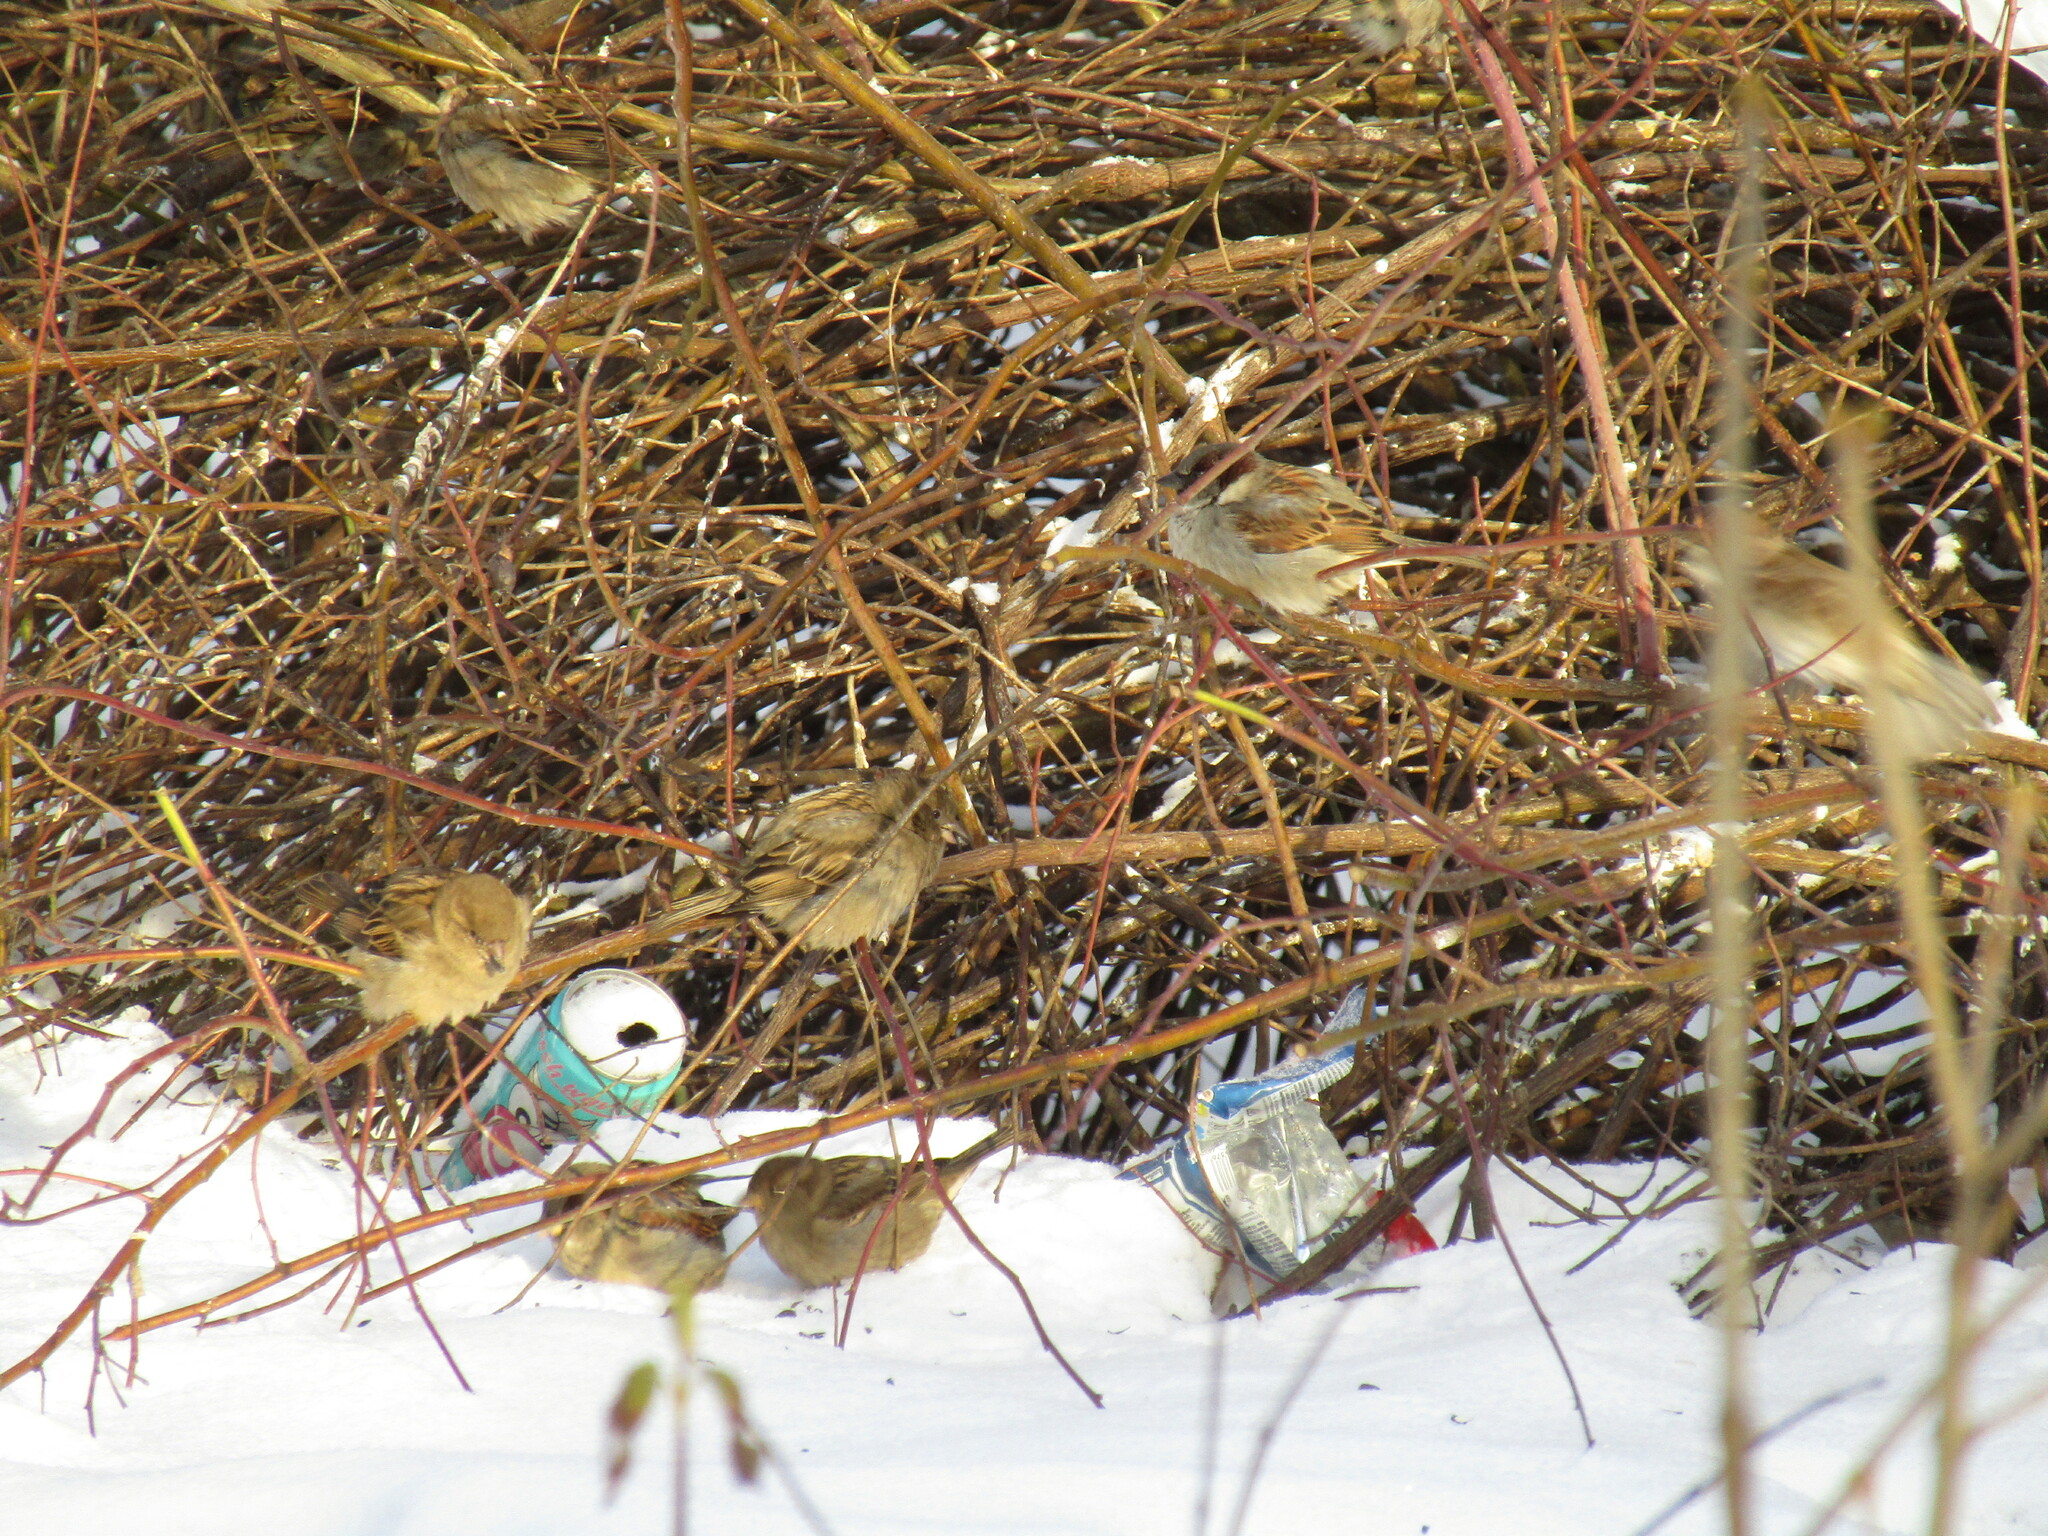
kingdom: Animalia
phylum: Chordata
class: Aves
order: Passeriformes
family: Passeridae
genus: Passer
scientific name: Passer domesticus
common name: House sparrow
